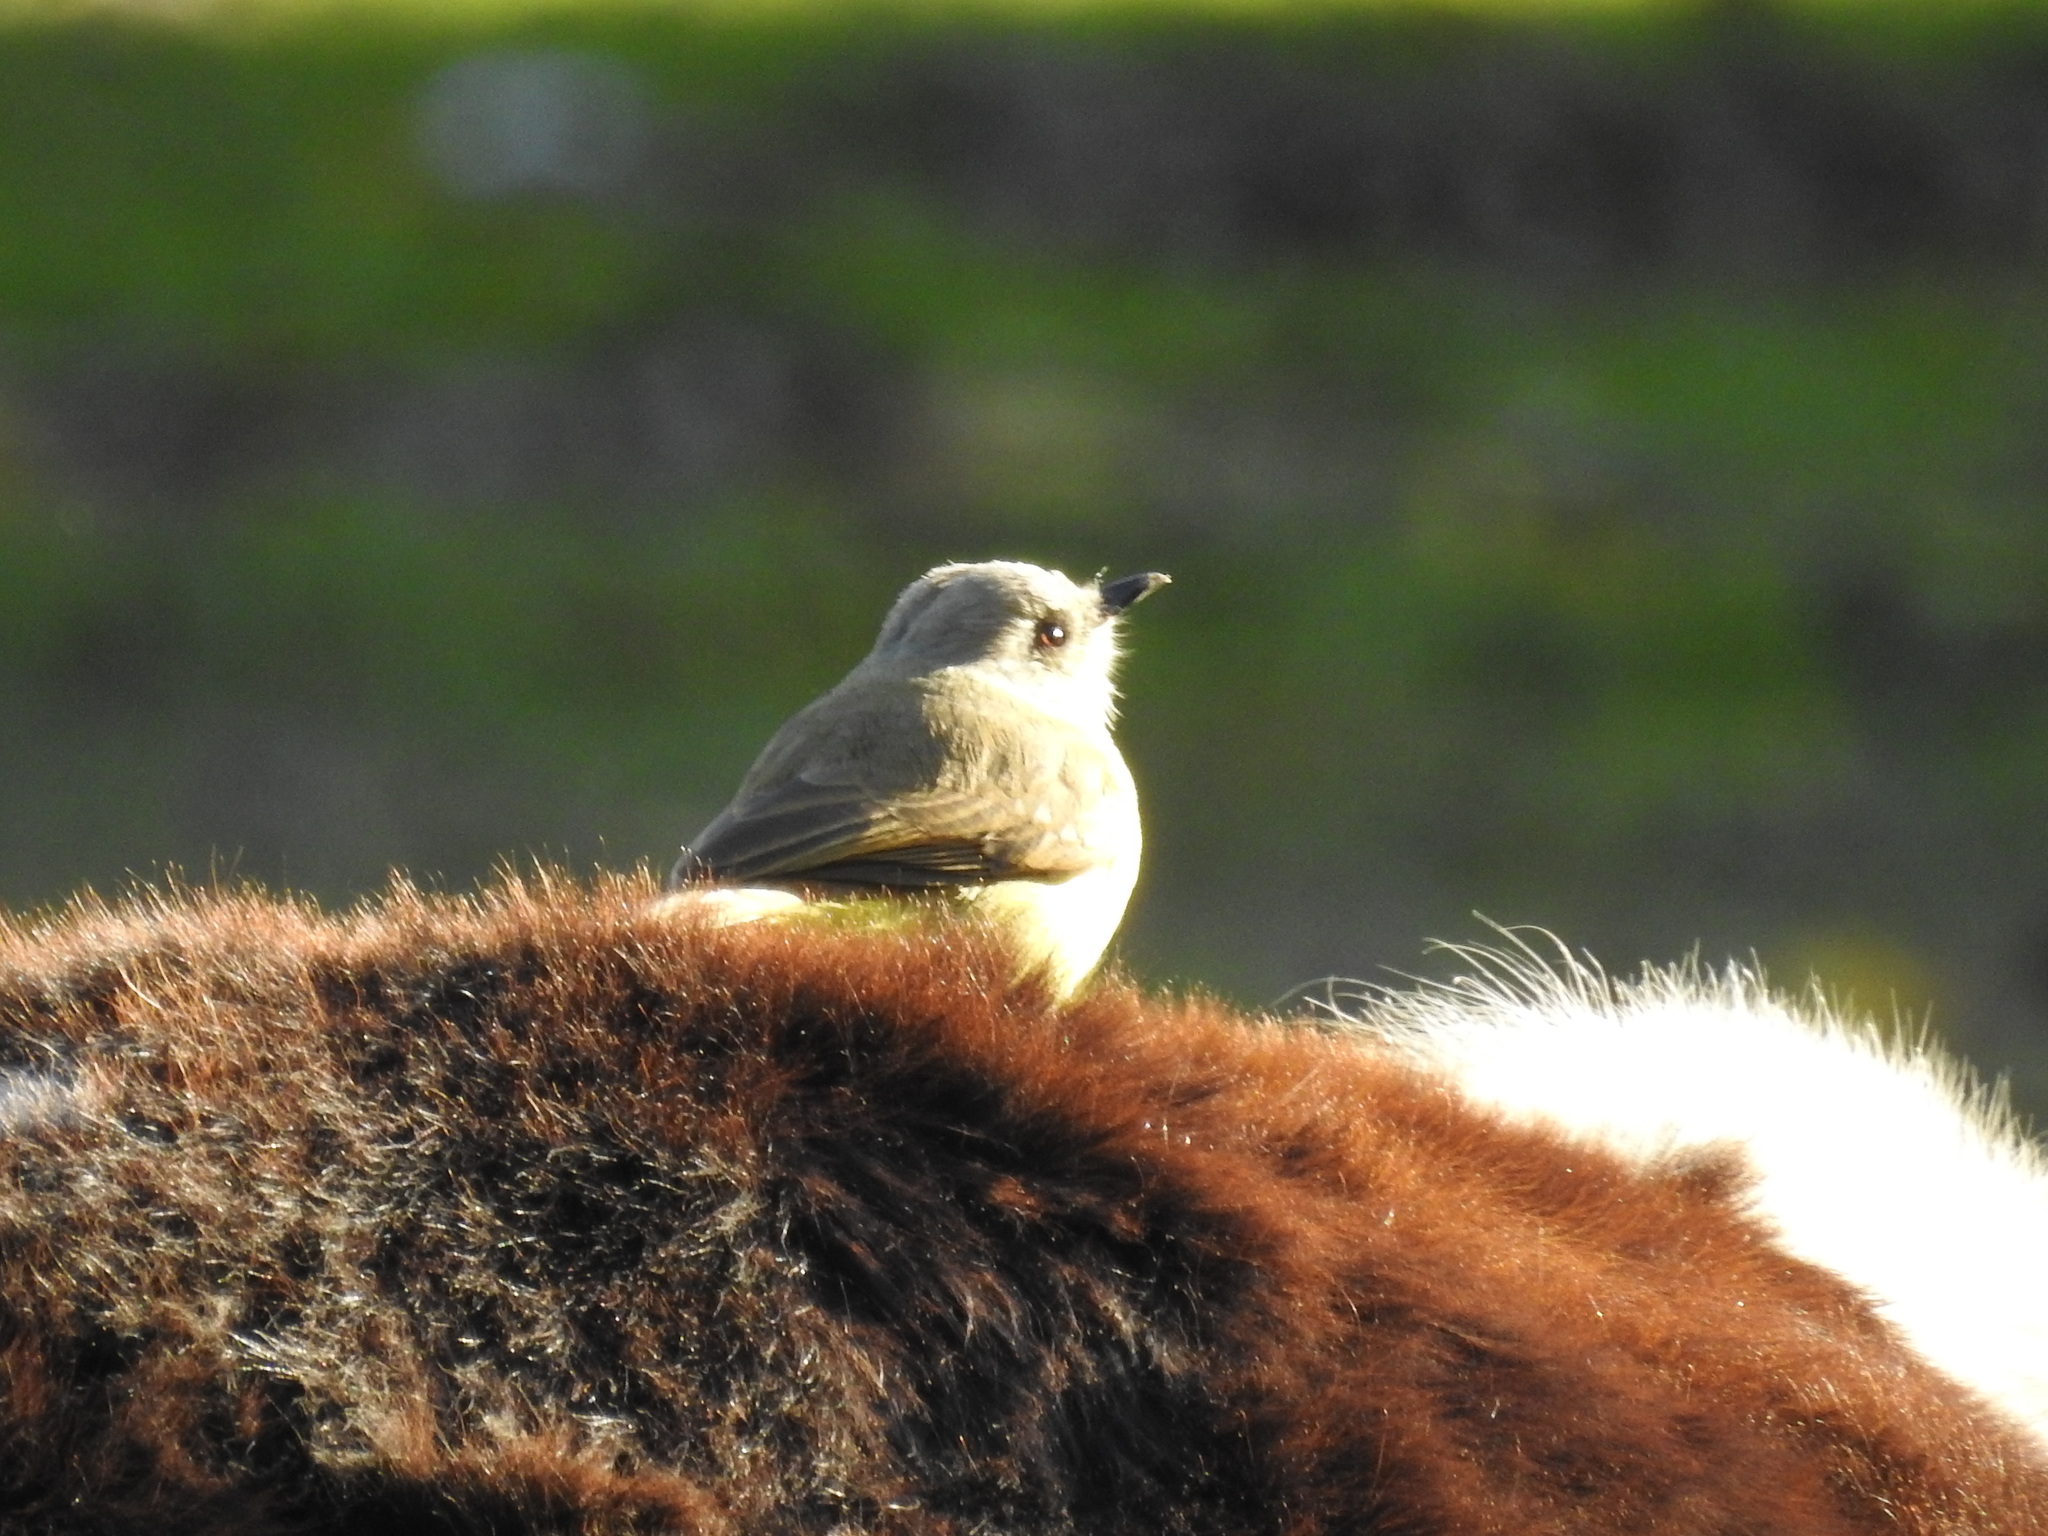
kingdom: Animalia
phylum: Chordata
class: Aves
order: Passeriformes
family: Tyrannidae
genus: Machetornis
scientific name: Machetornis rixosa
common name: Cattle tyrant
